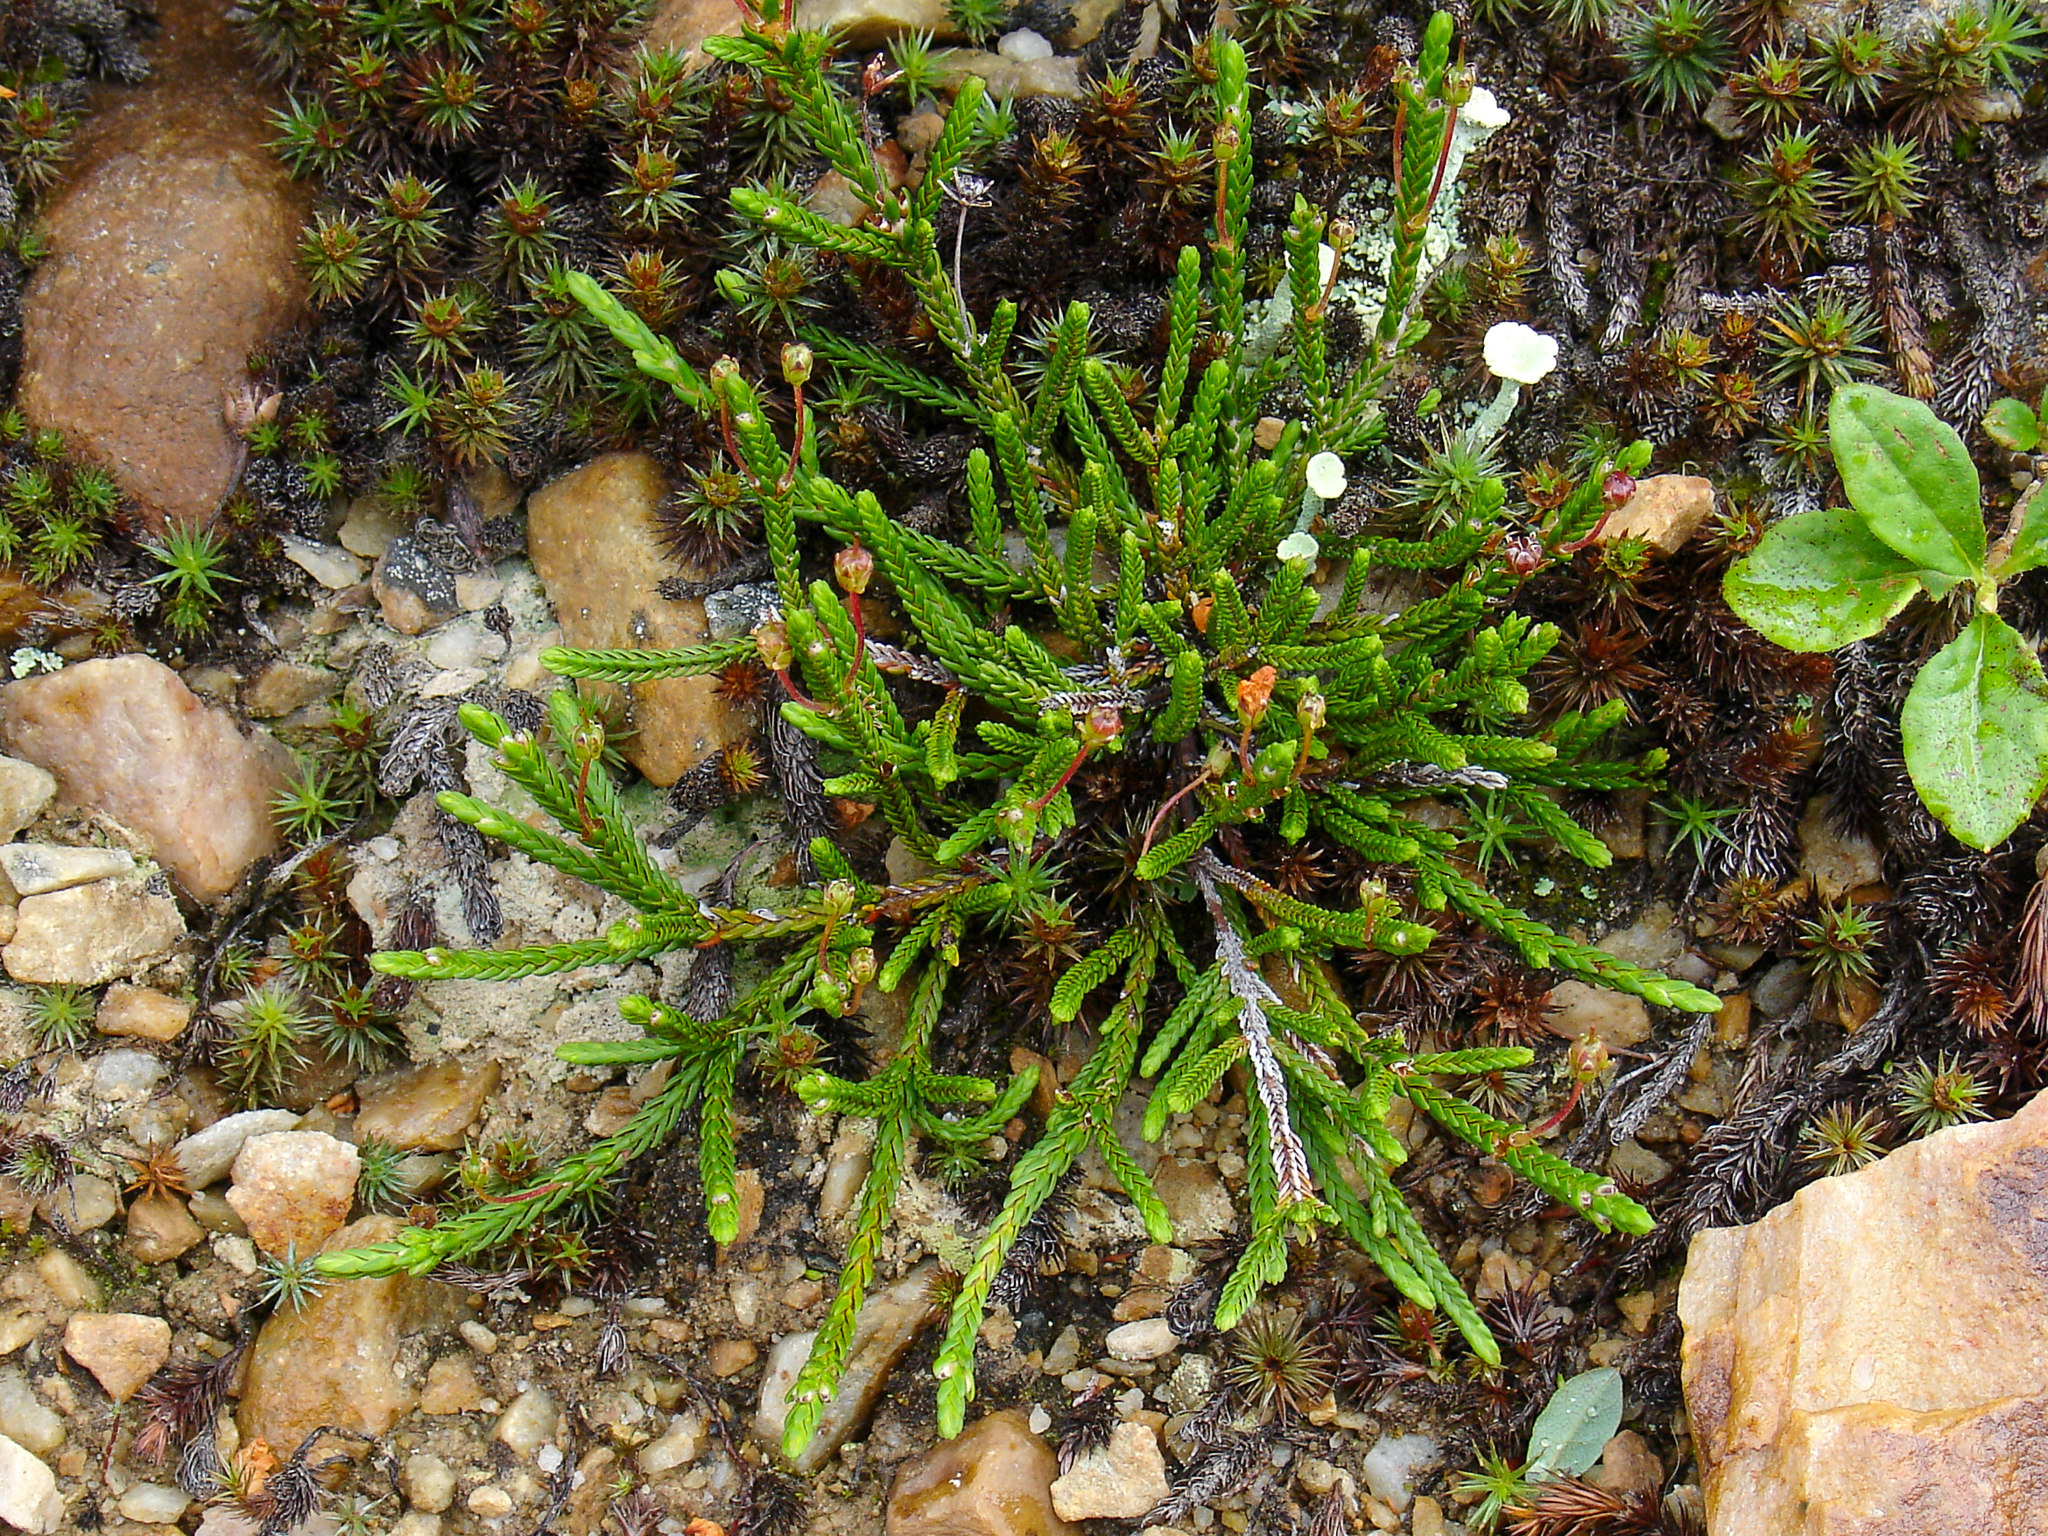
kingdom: Plantae
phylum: Tracheophyta
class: Magnoliopsida
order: Ericales
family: Ericaceae
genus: Cassiope
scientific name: Cassiope mertensiana
